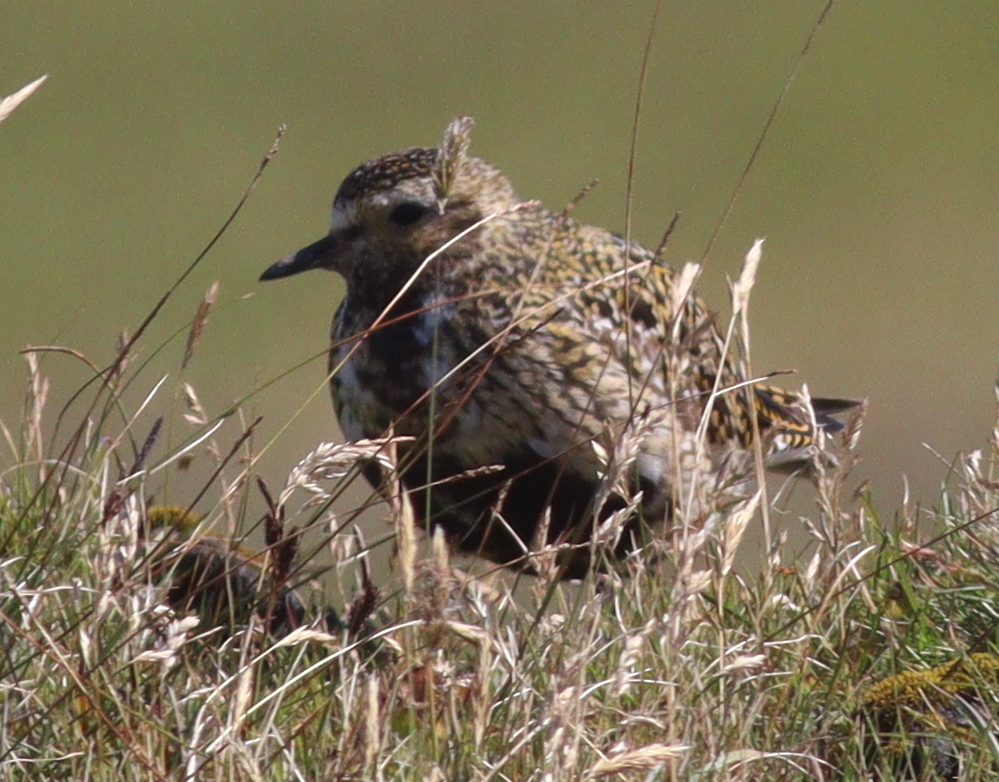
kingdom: Animalia
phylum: Chordata
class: Aves
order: Charadriiformes
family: Charadriidae
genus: Pluvialis
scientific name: Pluvialis apricaria
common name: European golden plover
